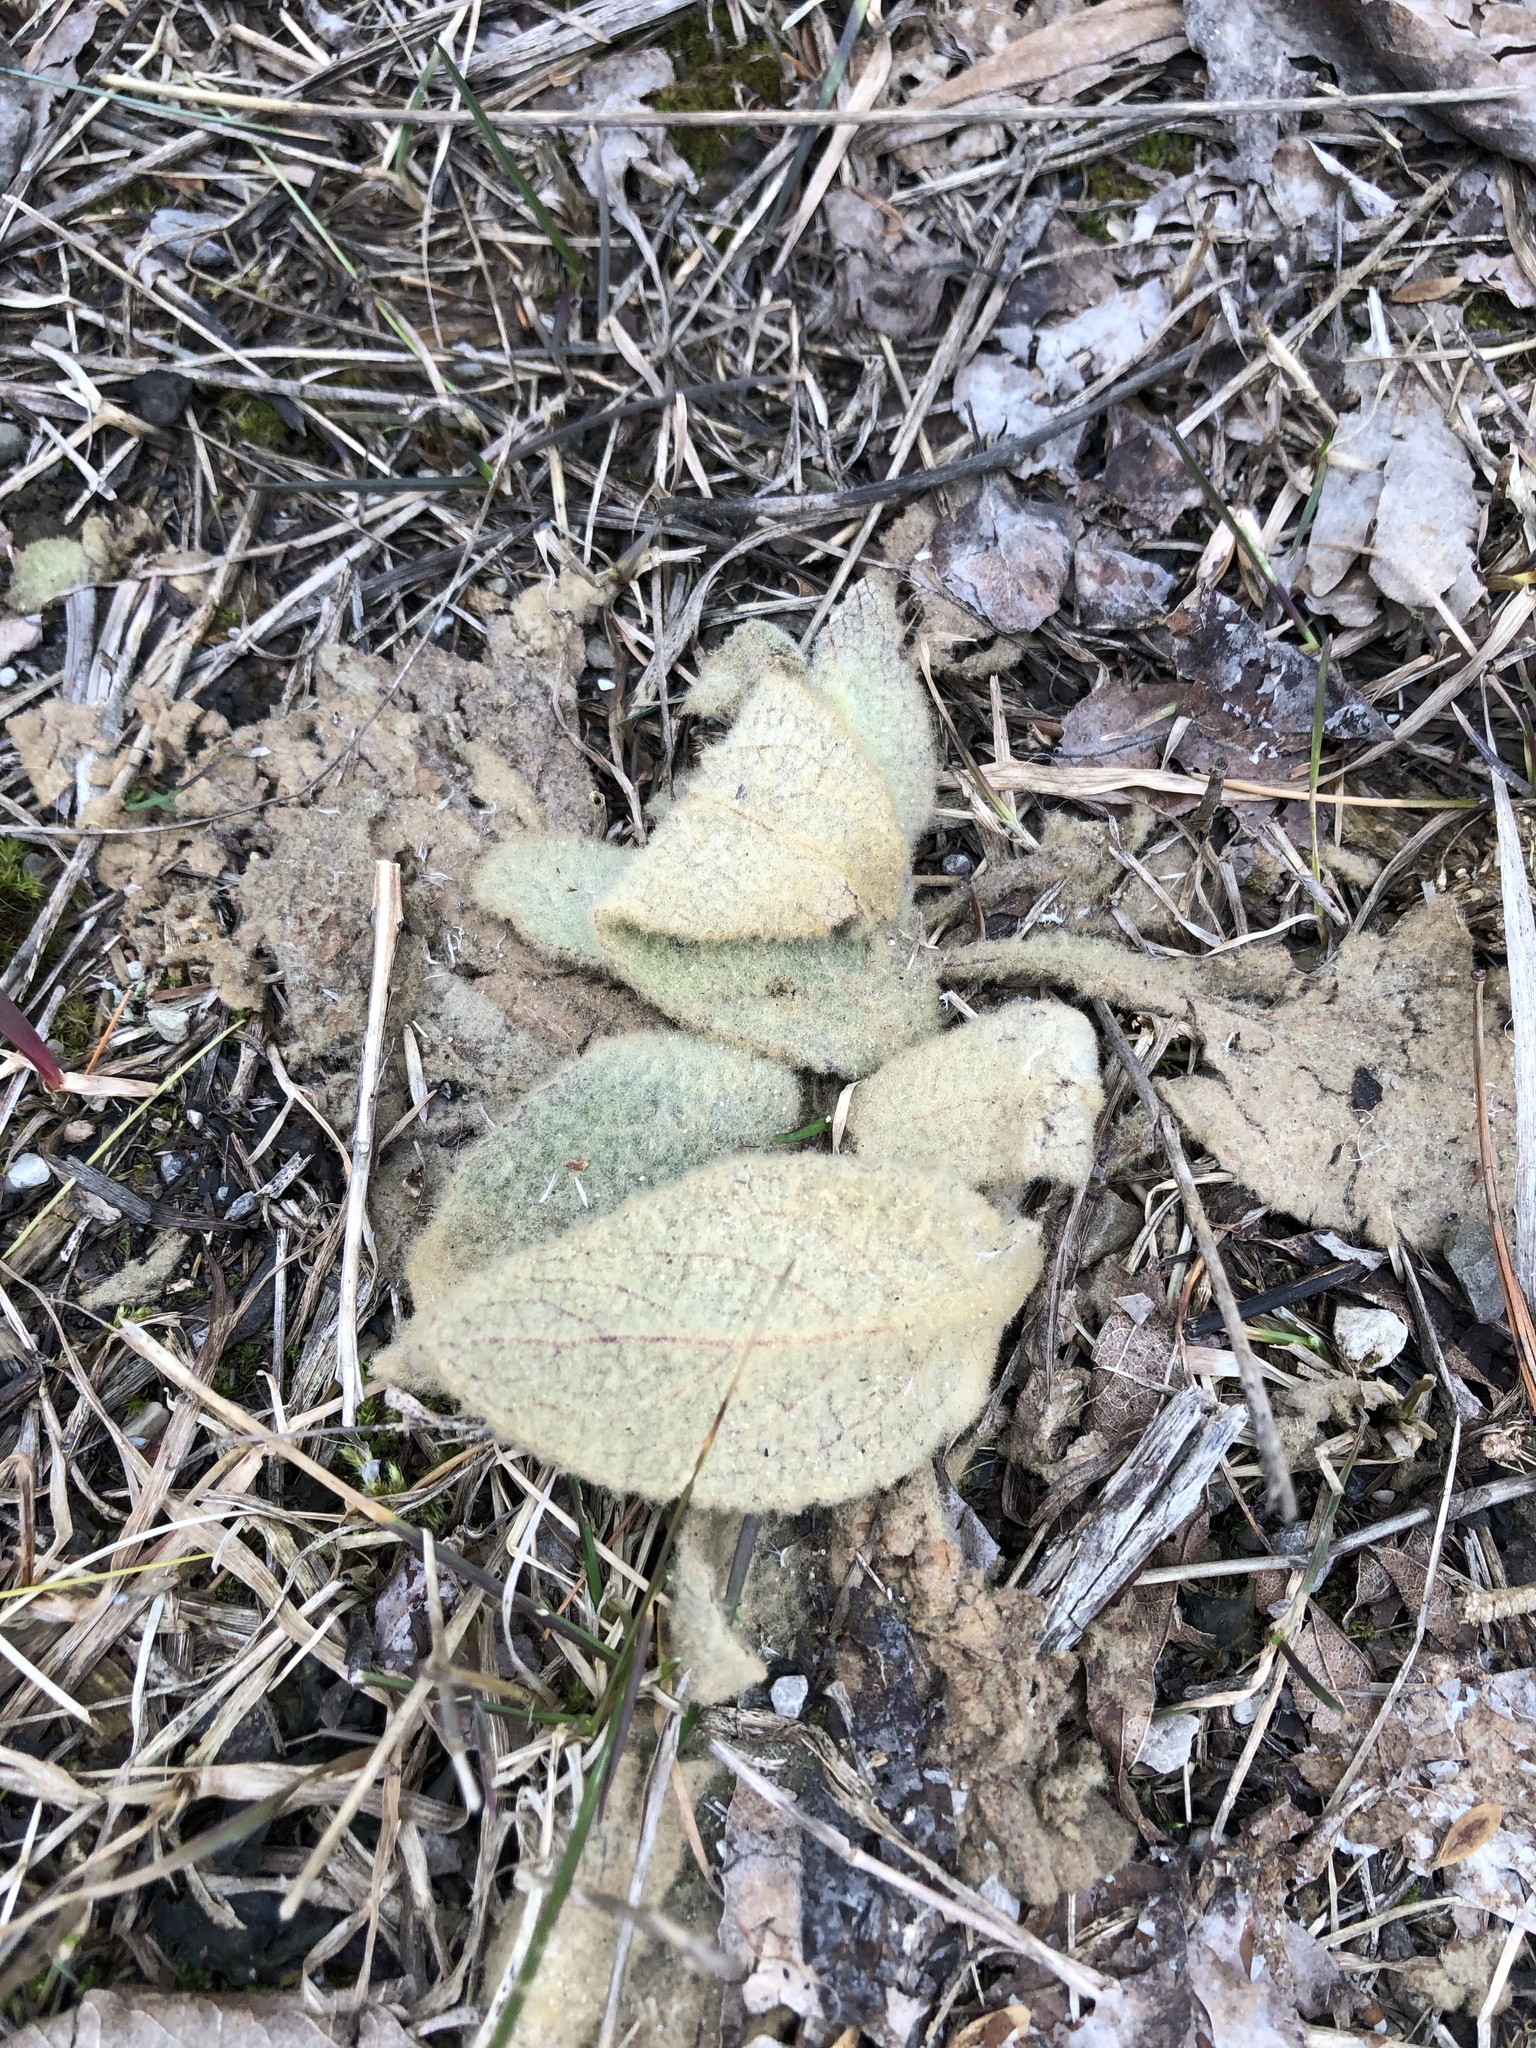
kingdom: Plantae
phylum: Tracheophyta
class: Magnoliopsida
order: Lamiales
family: Scrophulariaceae
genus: Verbascum
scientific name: Verbascum thapsus
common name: Common mullein
